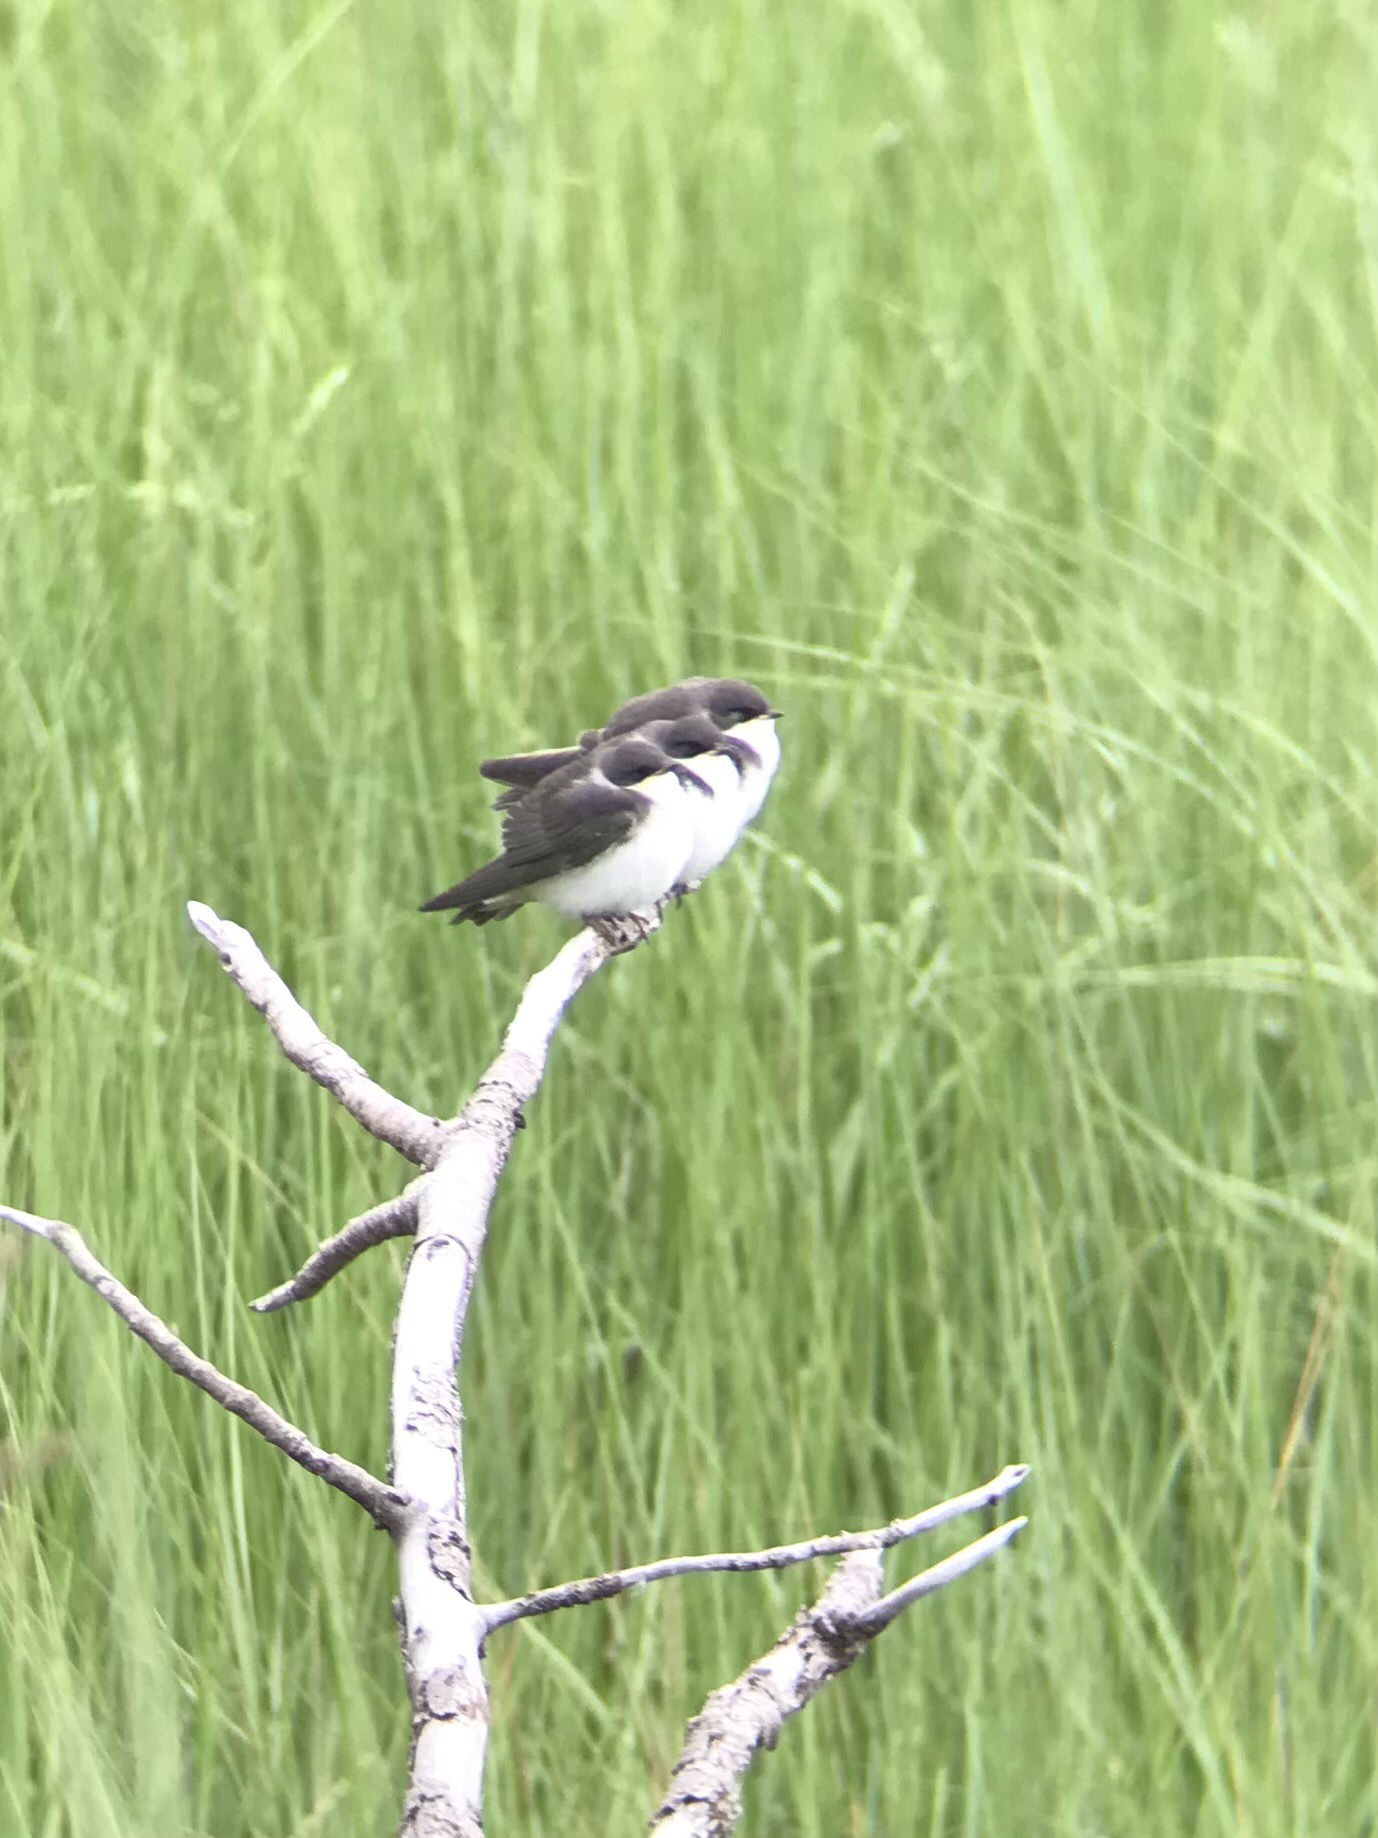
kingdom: Animalia
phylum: Chordata
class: Aves
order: Passeriformes
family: Hirundinidae
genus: Tachycineta
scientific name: Tachycineta bicolor
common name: Tree swallow
